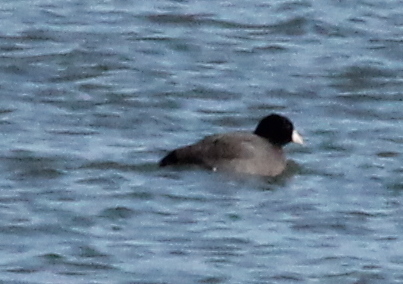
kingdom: Animalia
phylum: Chordata
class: Aves
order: Gruiformes
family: Rallidae
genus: Fulica
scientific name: Fulica americana
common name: American coot
